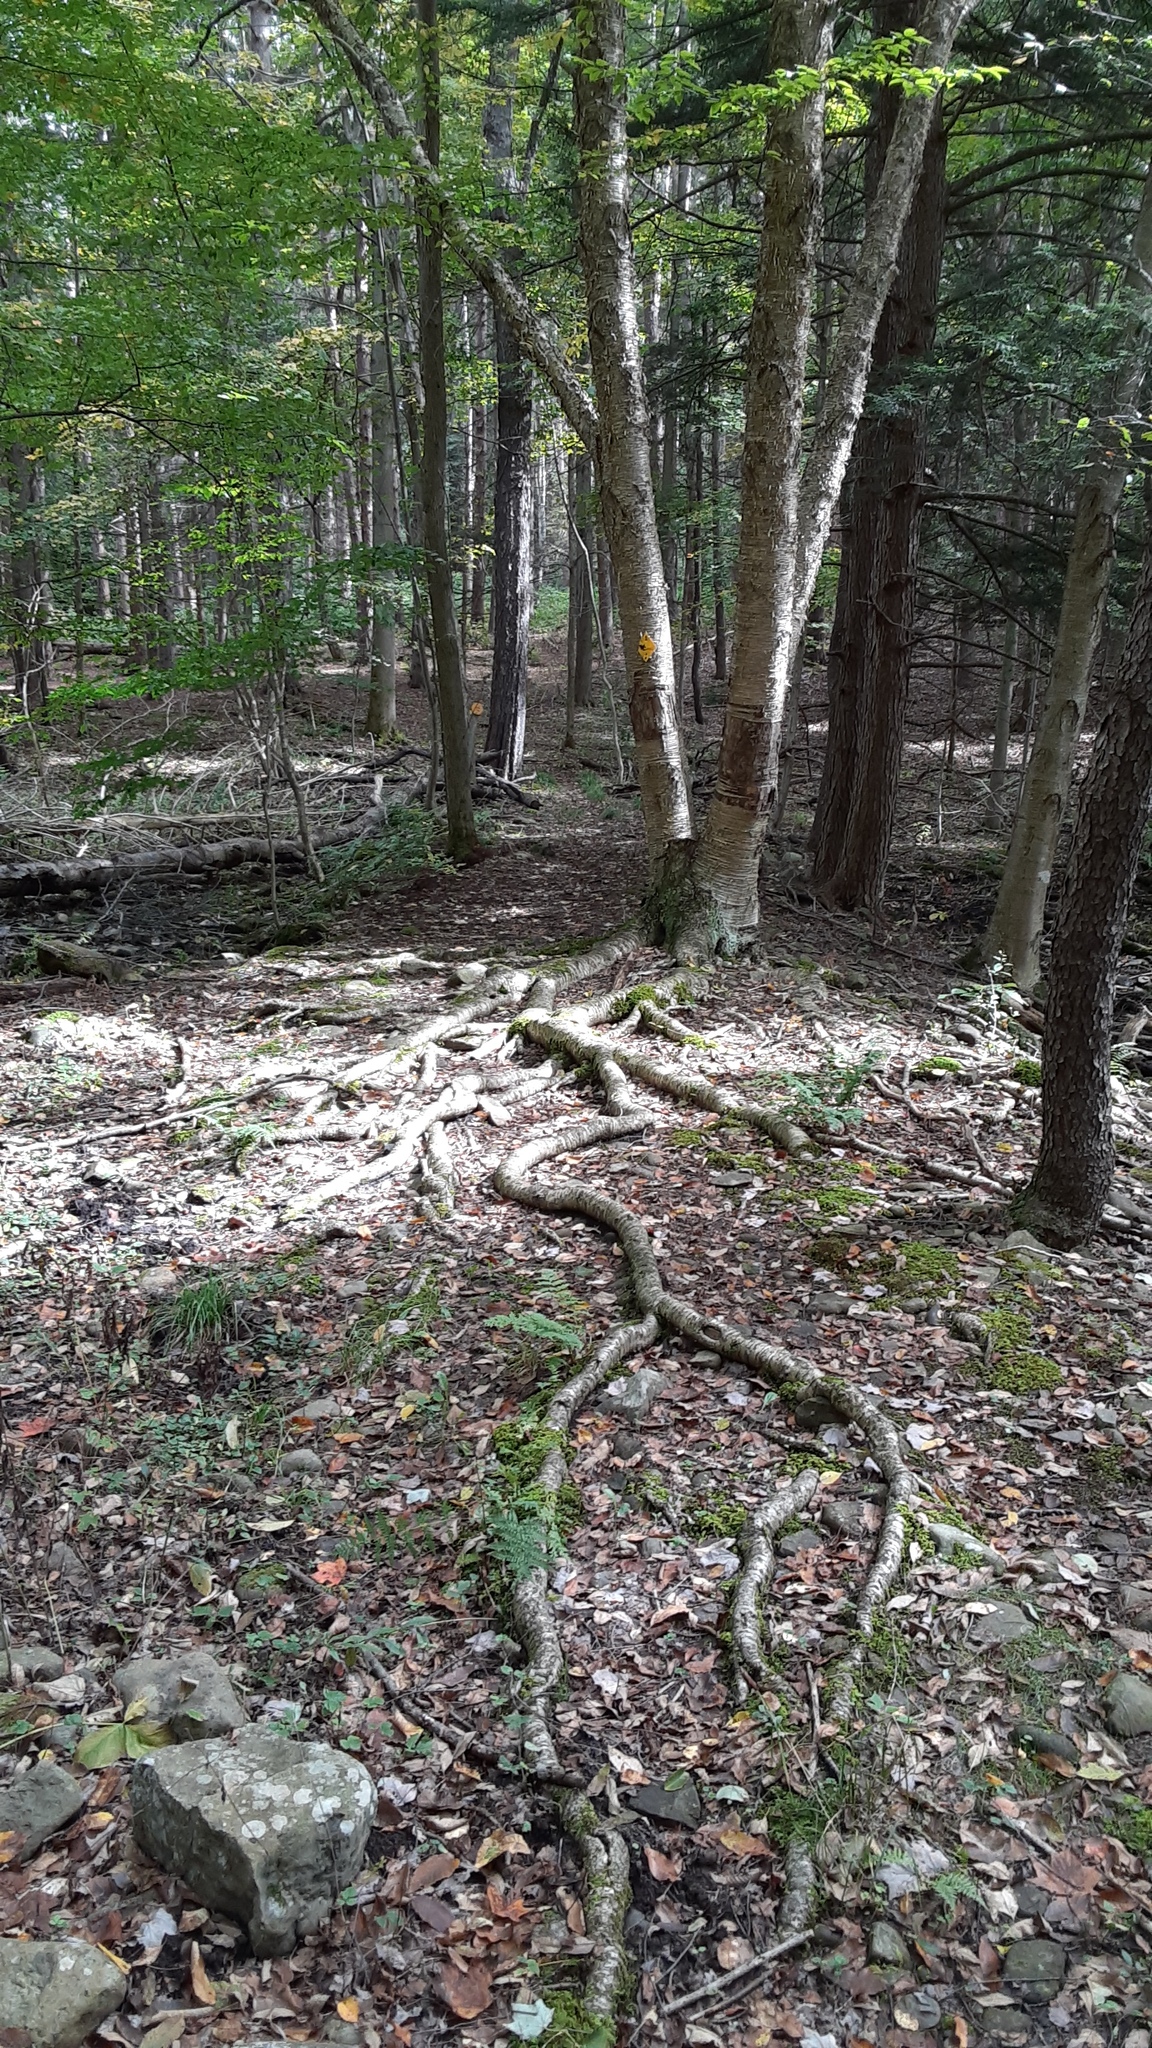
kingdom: Plantae
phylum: Tracheophyta
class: Magnoliopsida
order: Fagales
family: Betulaceae
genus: Betula
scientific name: Betula alleghaniensis
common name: Yellow birch
